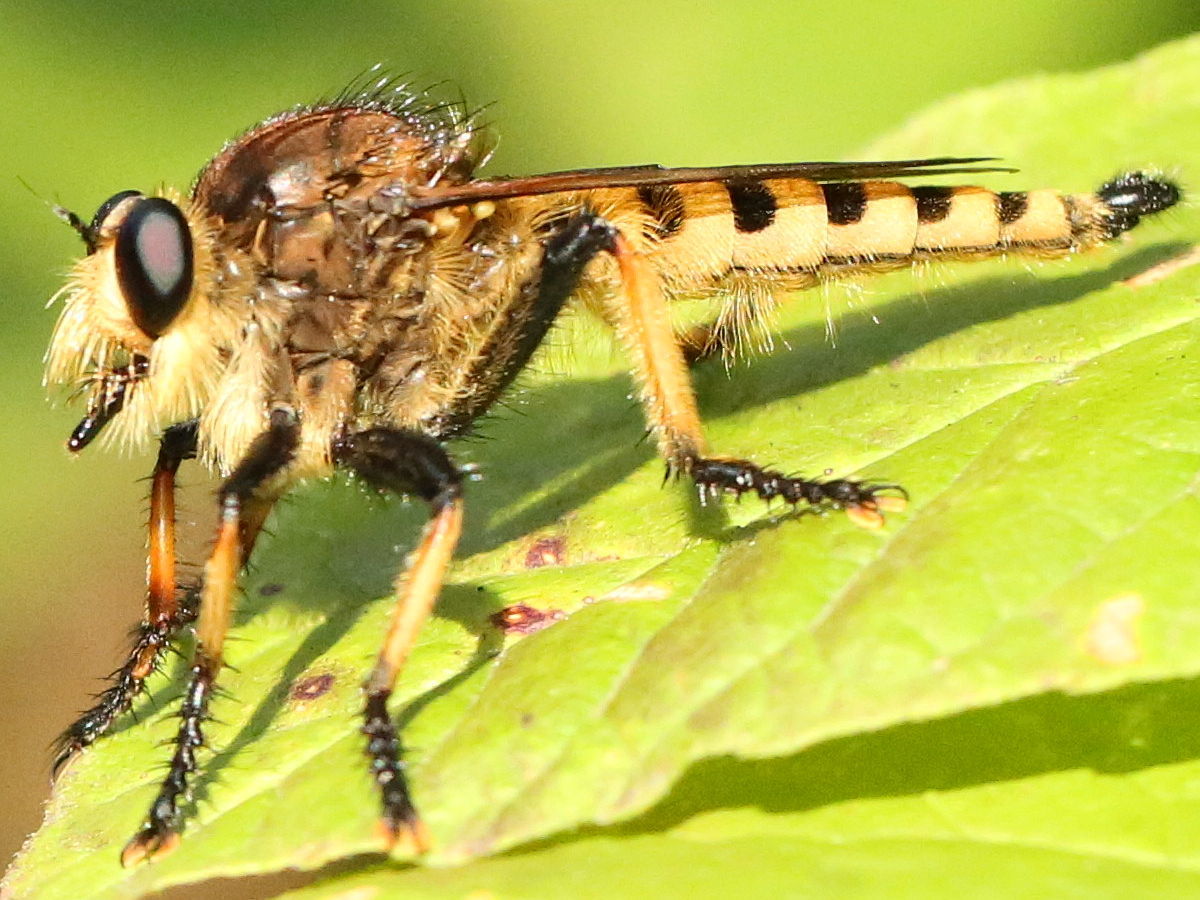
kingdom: Animalia
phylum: Arthropoda
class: Insecta
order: Diptera
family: Asilidae
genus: Promachus
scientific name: Promachus rufipes
